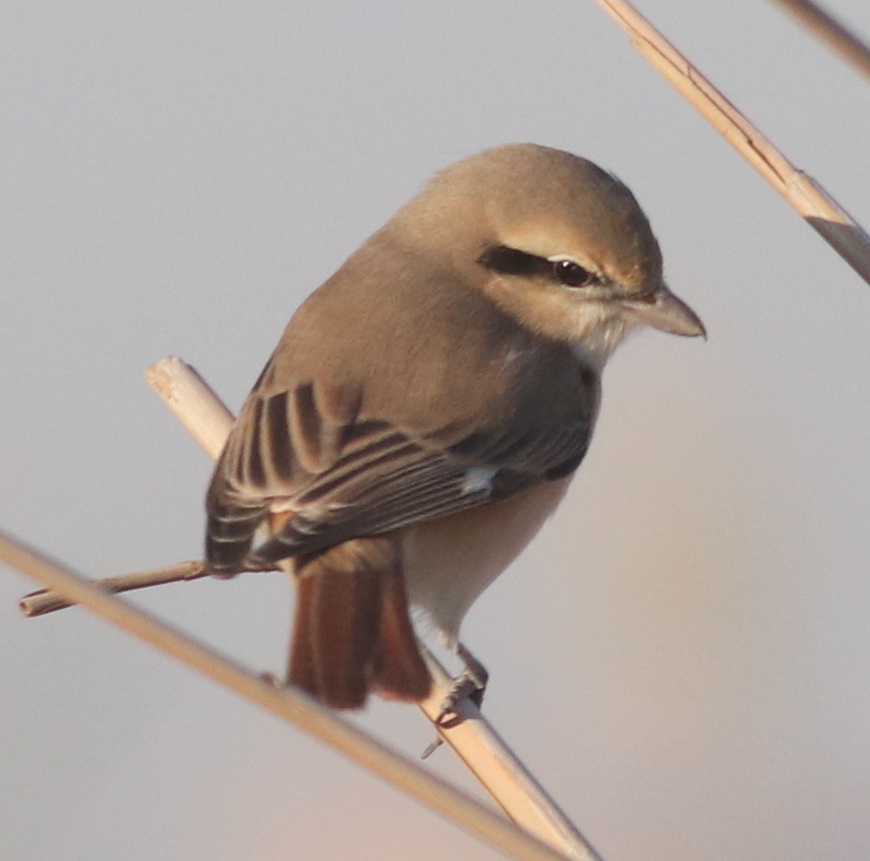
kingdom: Animalia
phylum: Chordata
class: Aves
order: Passeriformes
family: Laniidae
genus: Lanius
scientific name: Lanius isabellinus
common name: Isabelline shrike
